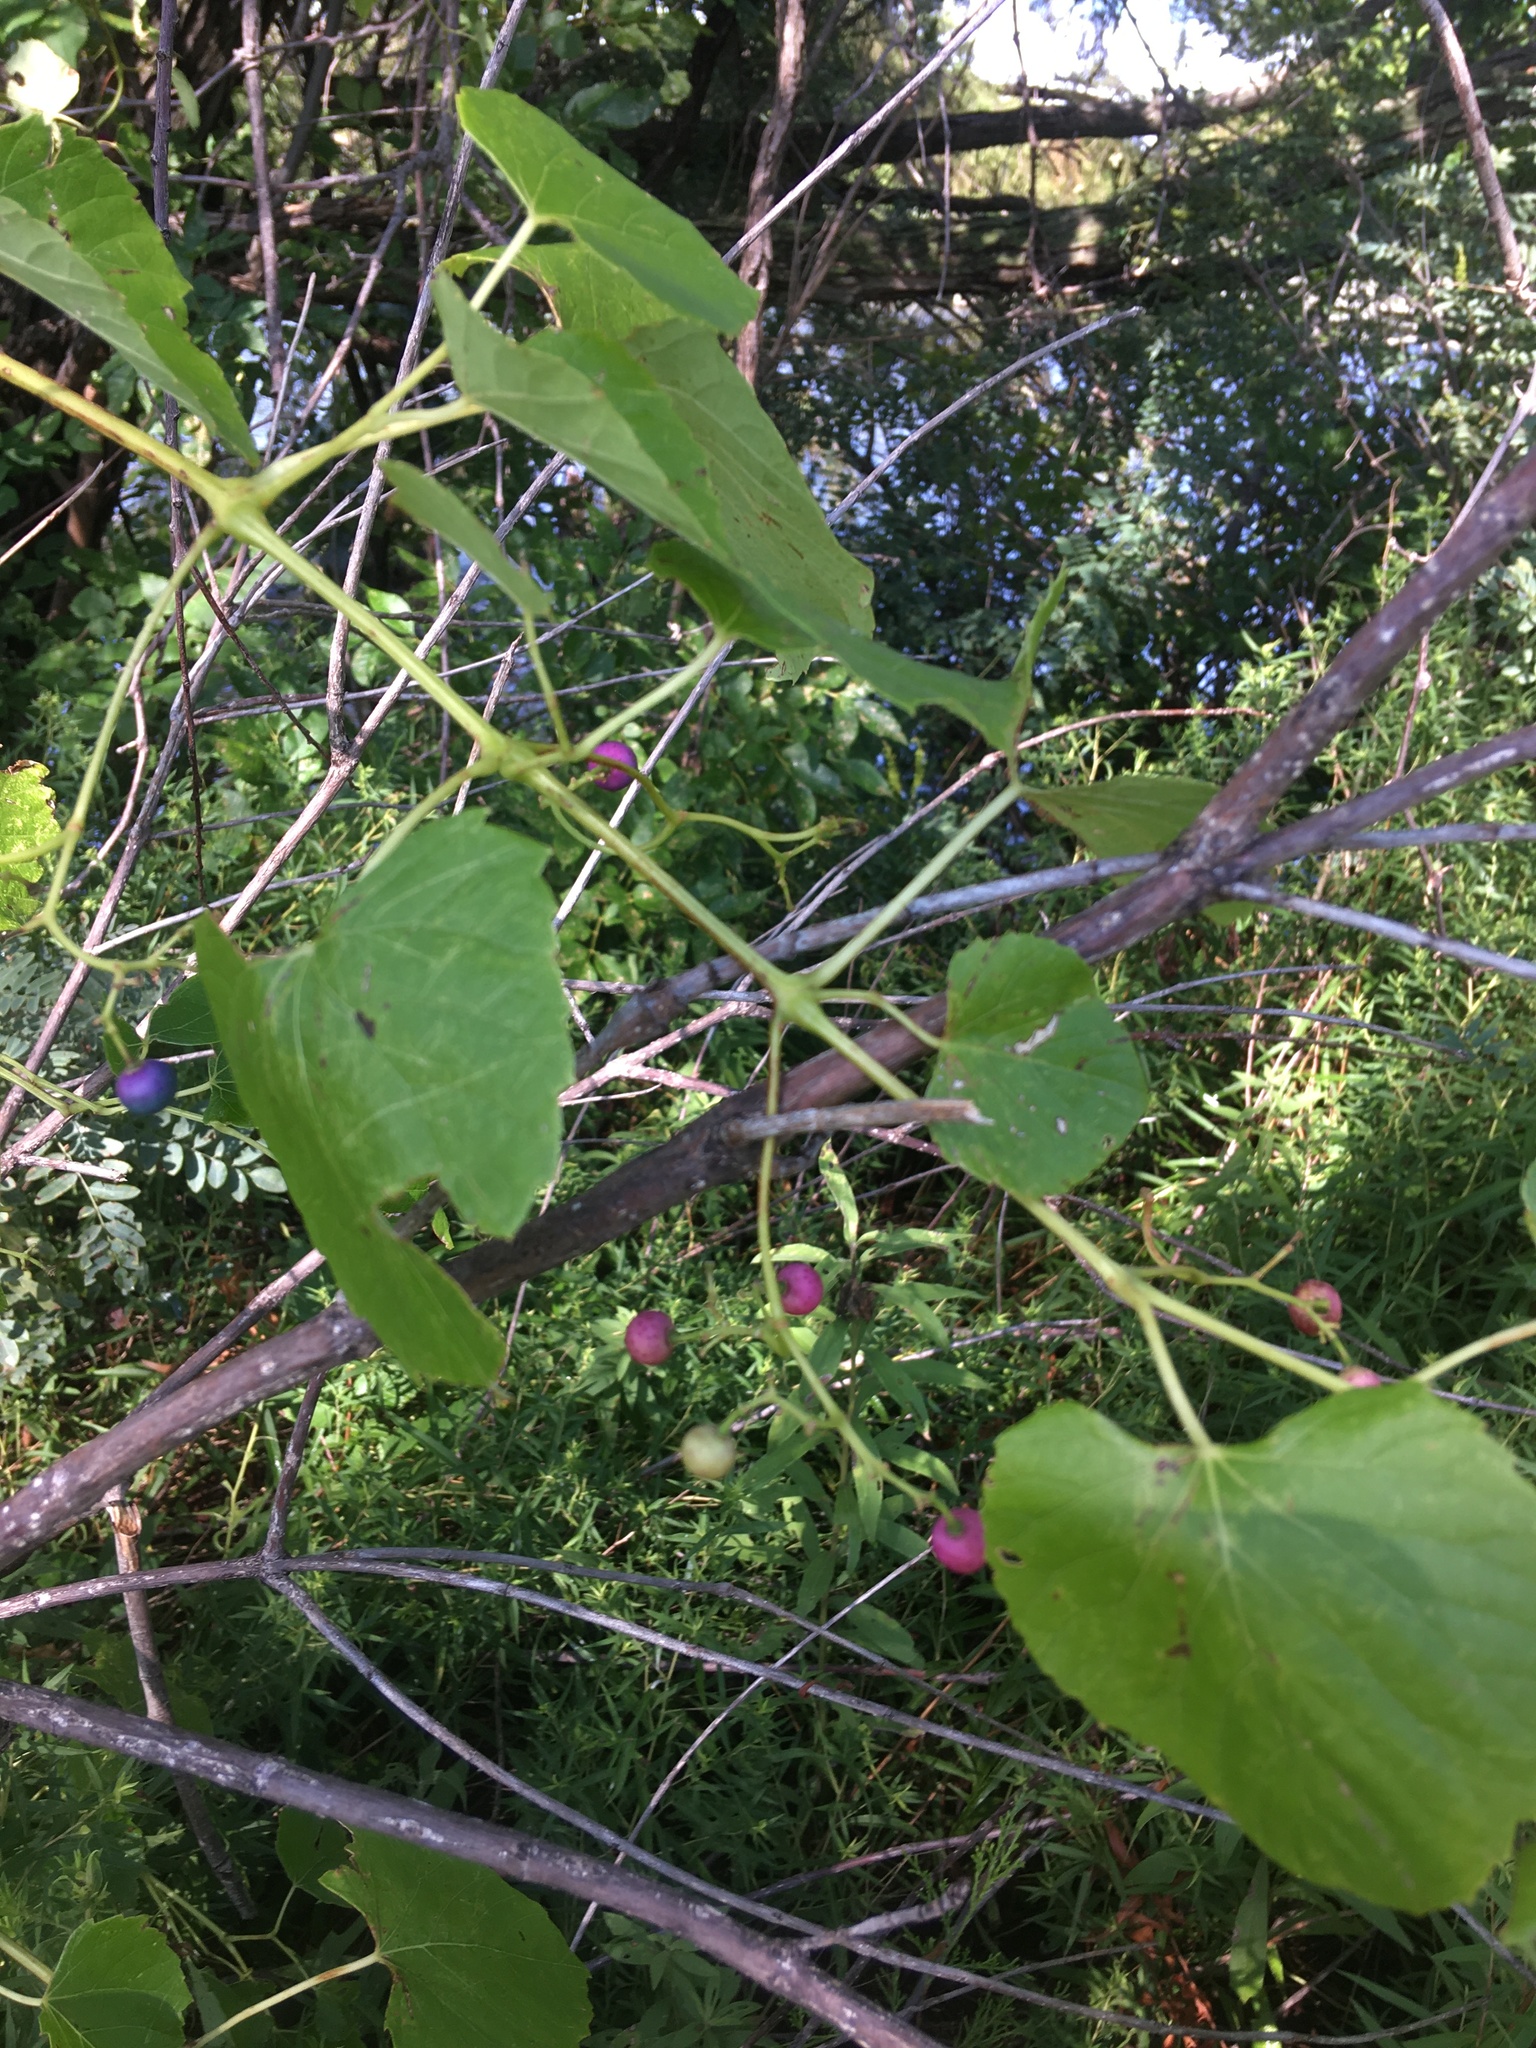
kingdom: Plantae
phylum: Tracheophyta
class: Magnoliopsida
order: Vitales
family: Vitaceae
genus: Ampelopsis
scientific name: Ampelopsis cordata
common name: Heart-leaf ampelopsis
